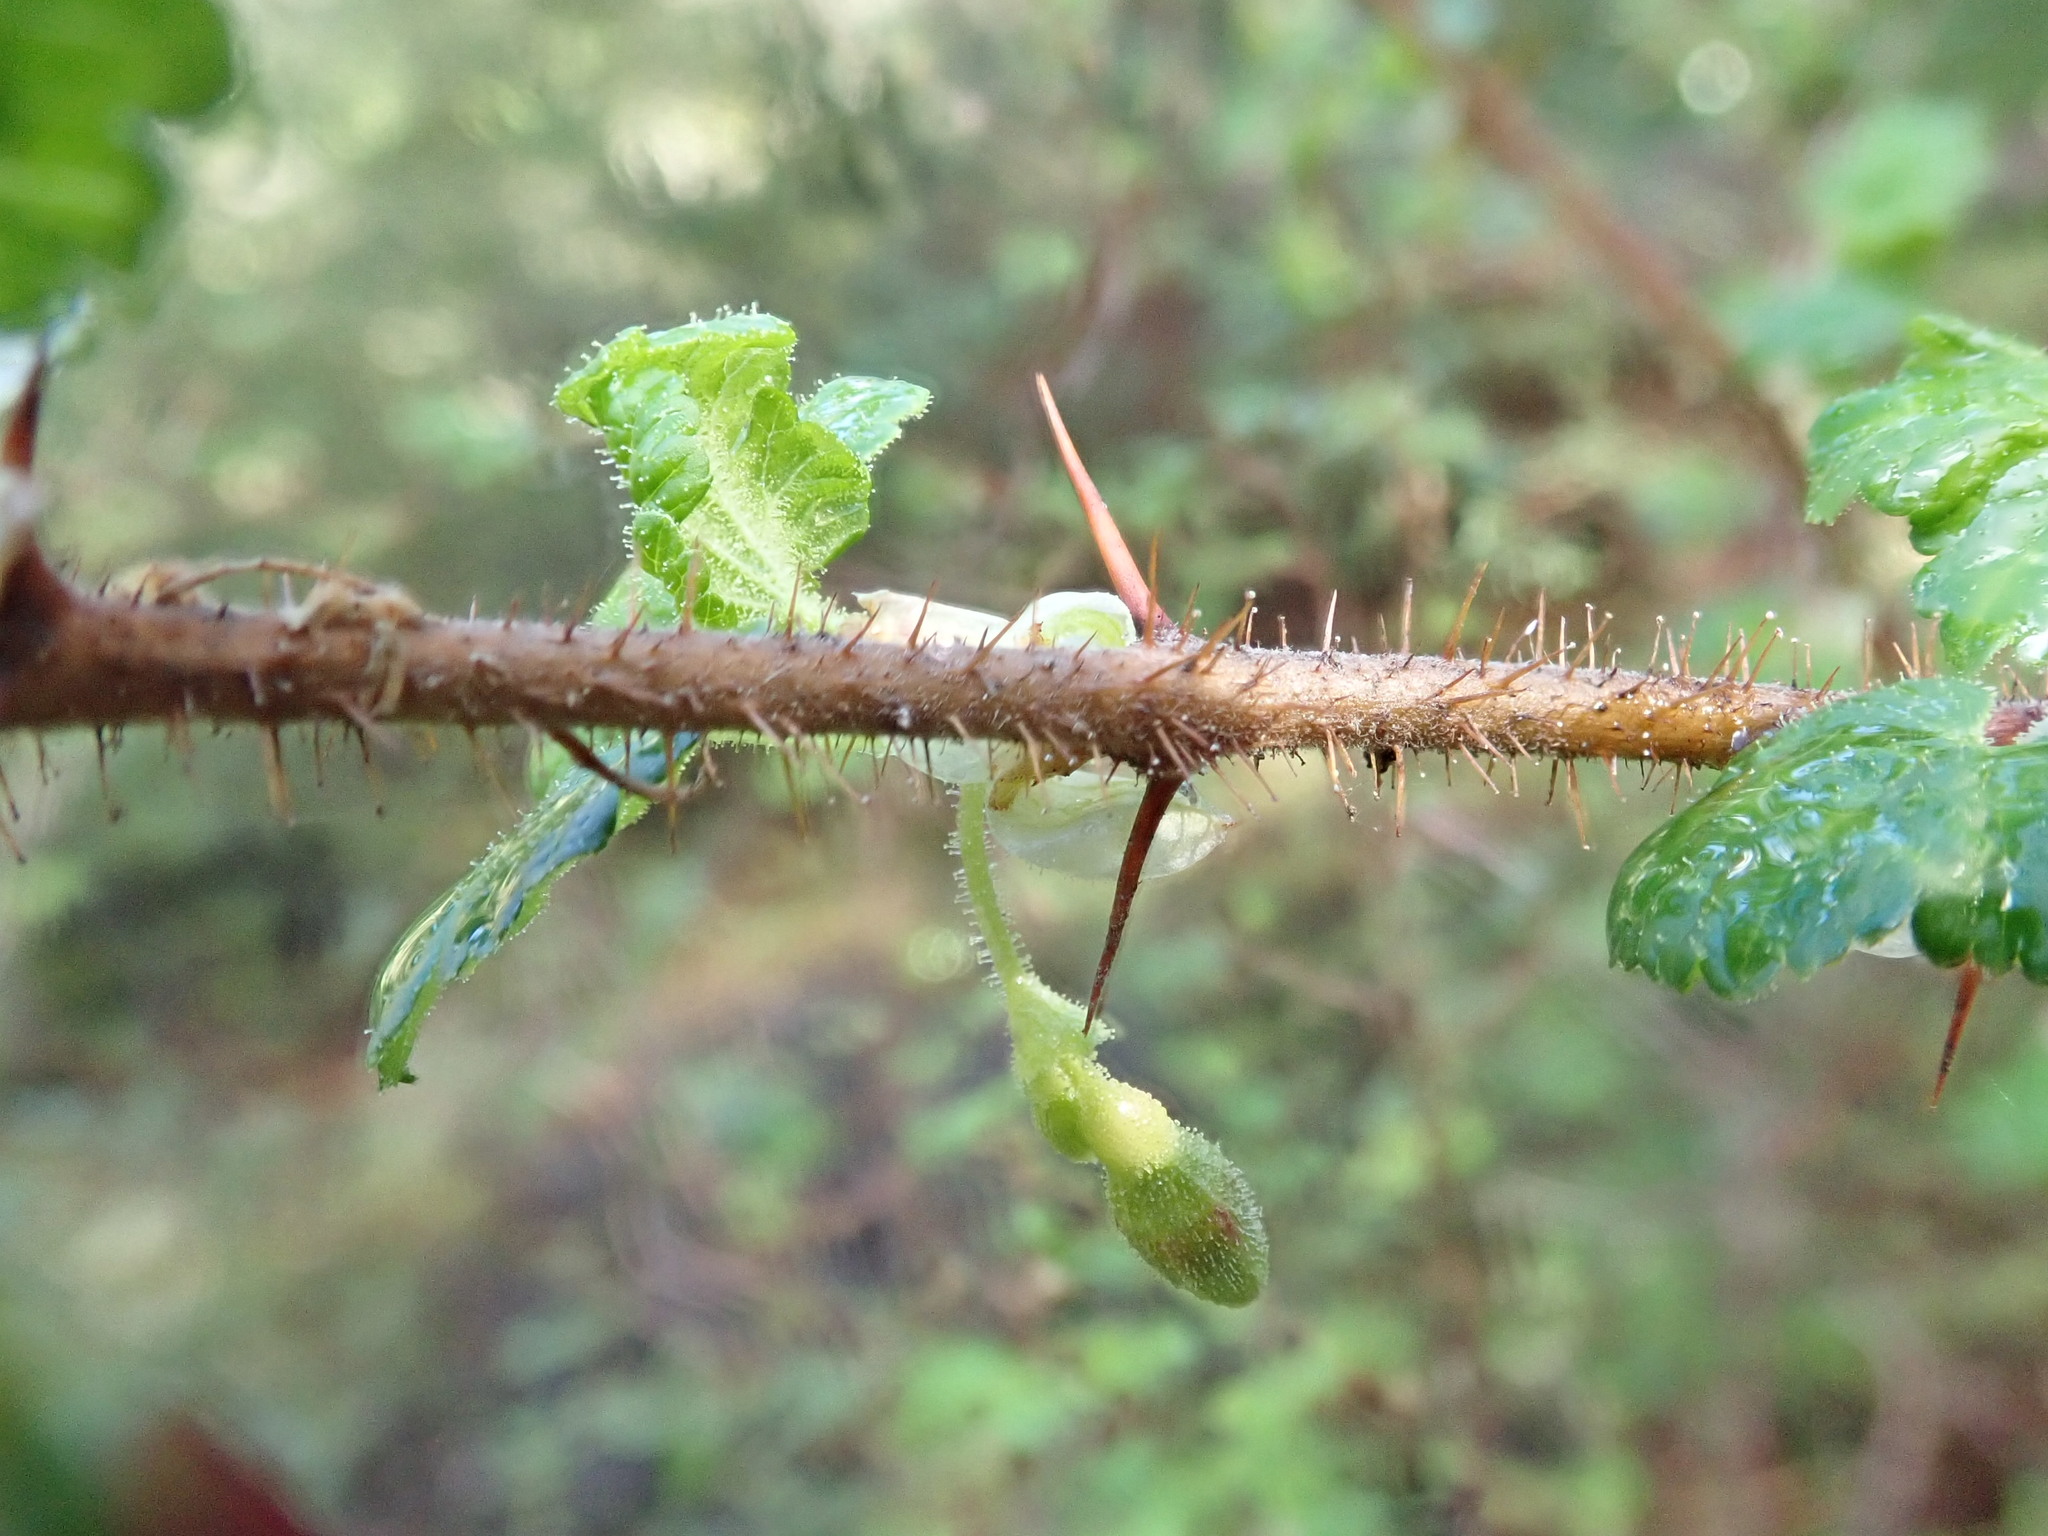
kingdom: Plantae
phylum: Tracheophyta
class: Magnoliopsida
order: Saxifragales
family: Grossulariaceae
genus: Ribes
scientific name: Ribes menziesii
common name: Canyon gooseberry
